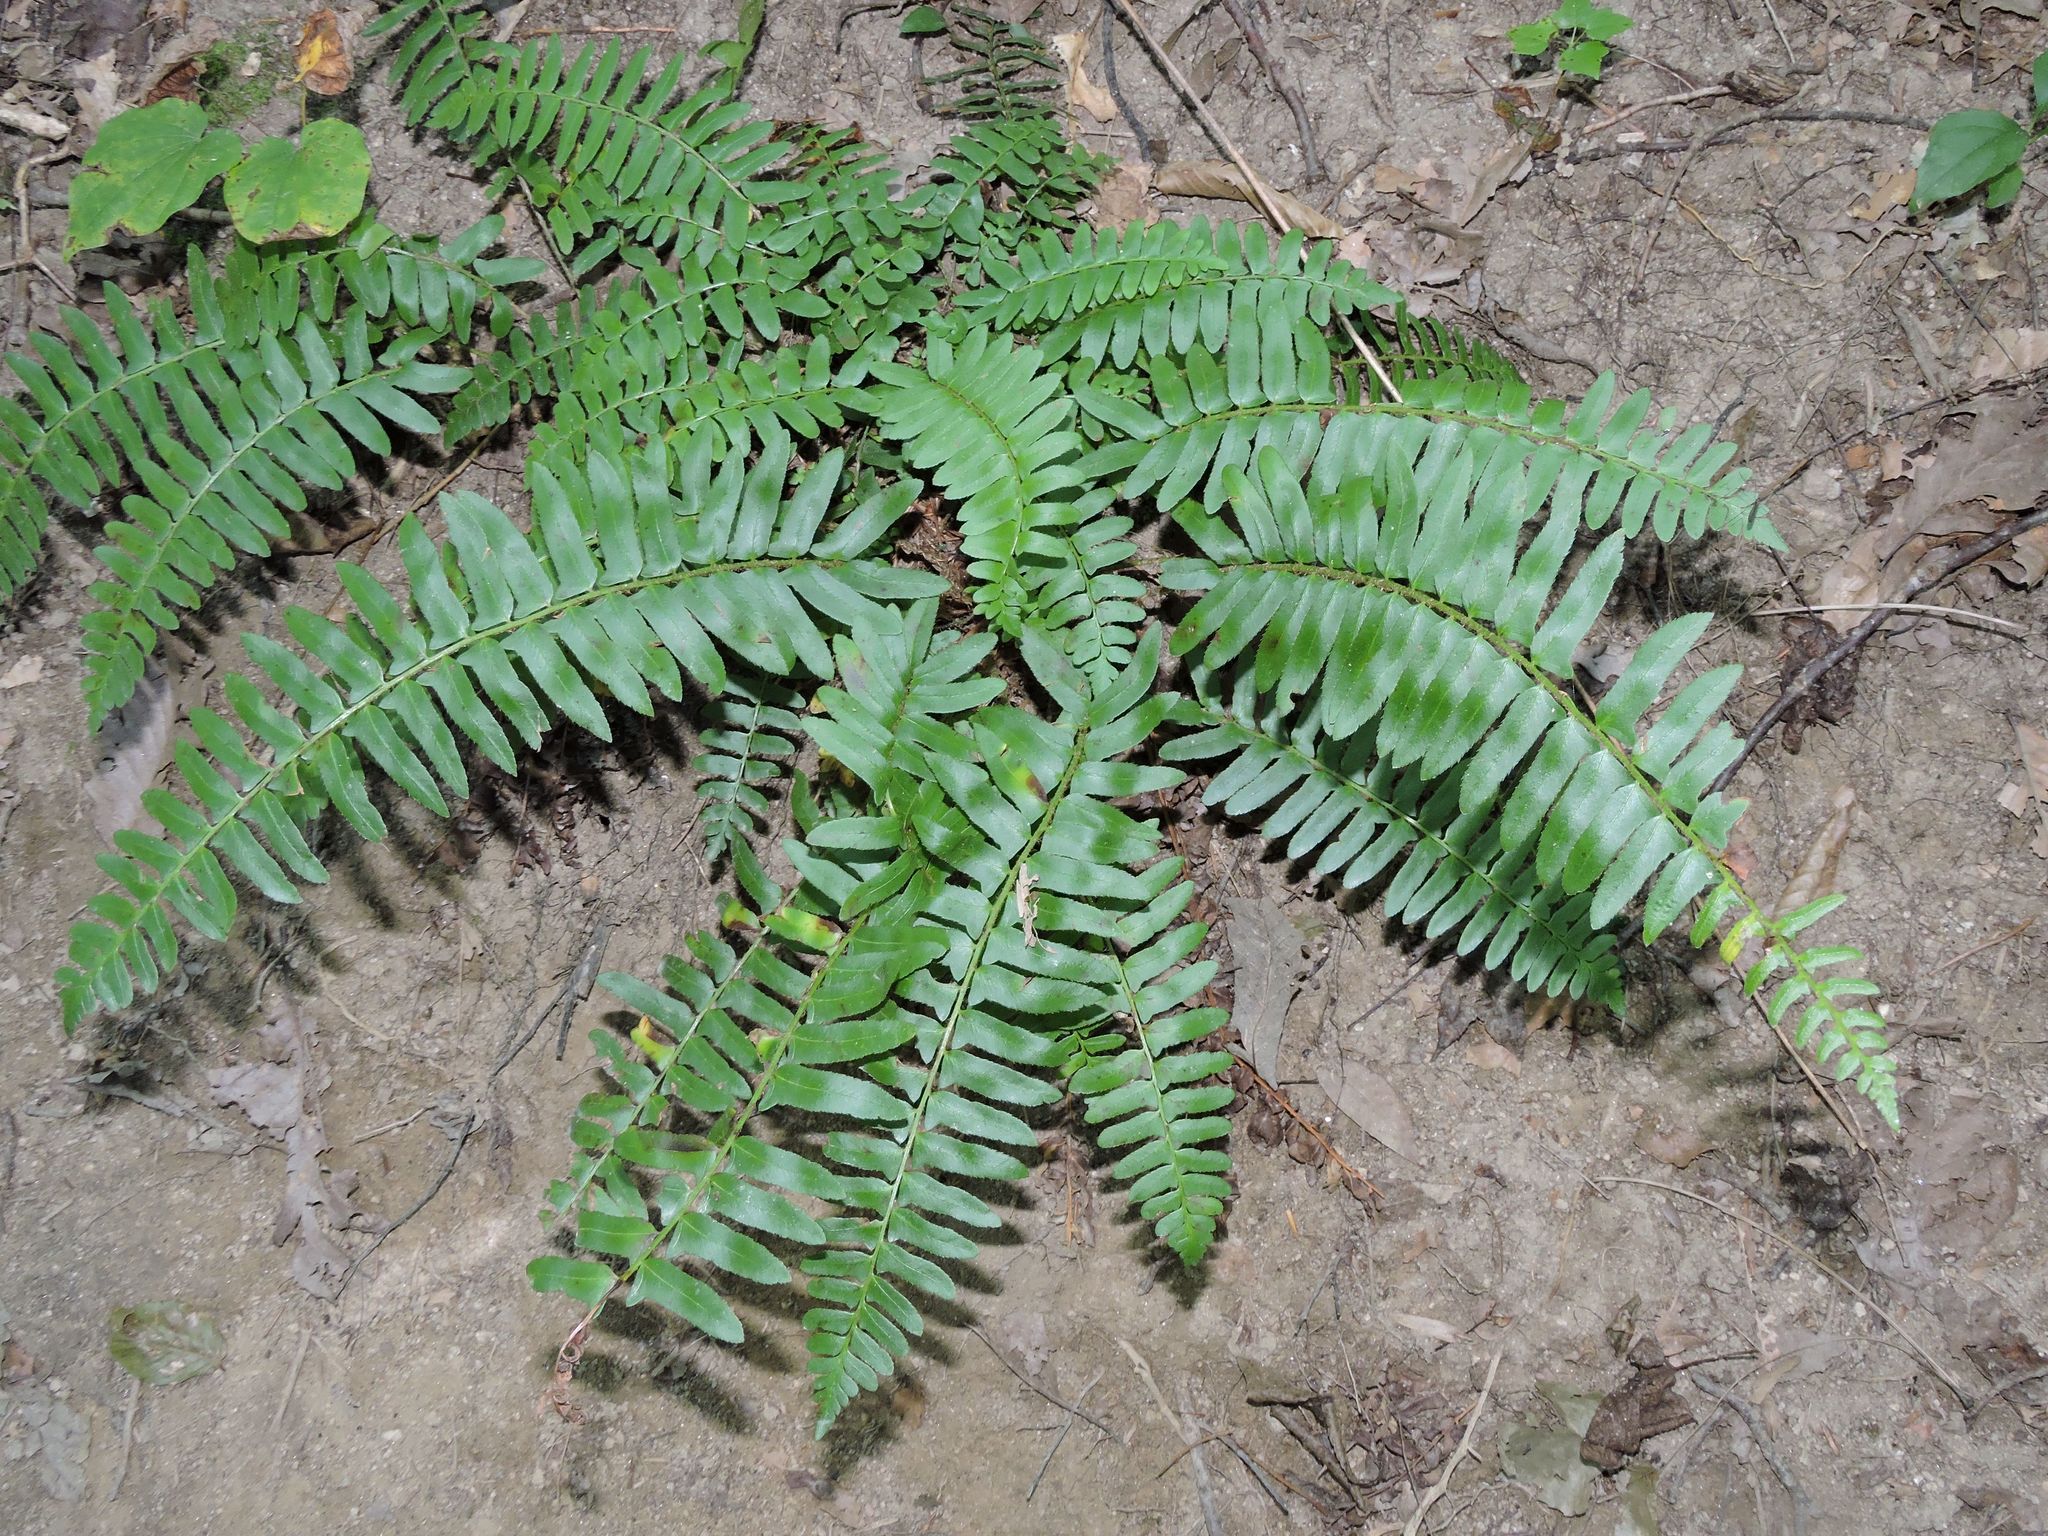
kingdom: Plantae
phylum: Tracheophyta
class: Polypodiopsida
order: Polypodiales
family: Dryopteridaceae
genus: Polystichum
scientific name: Polystichum acrostichoides
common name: Christmas fern
